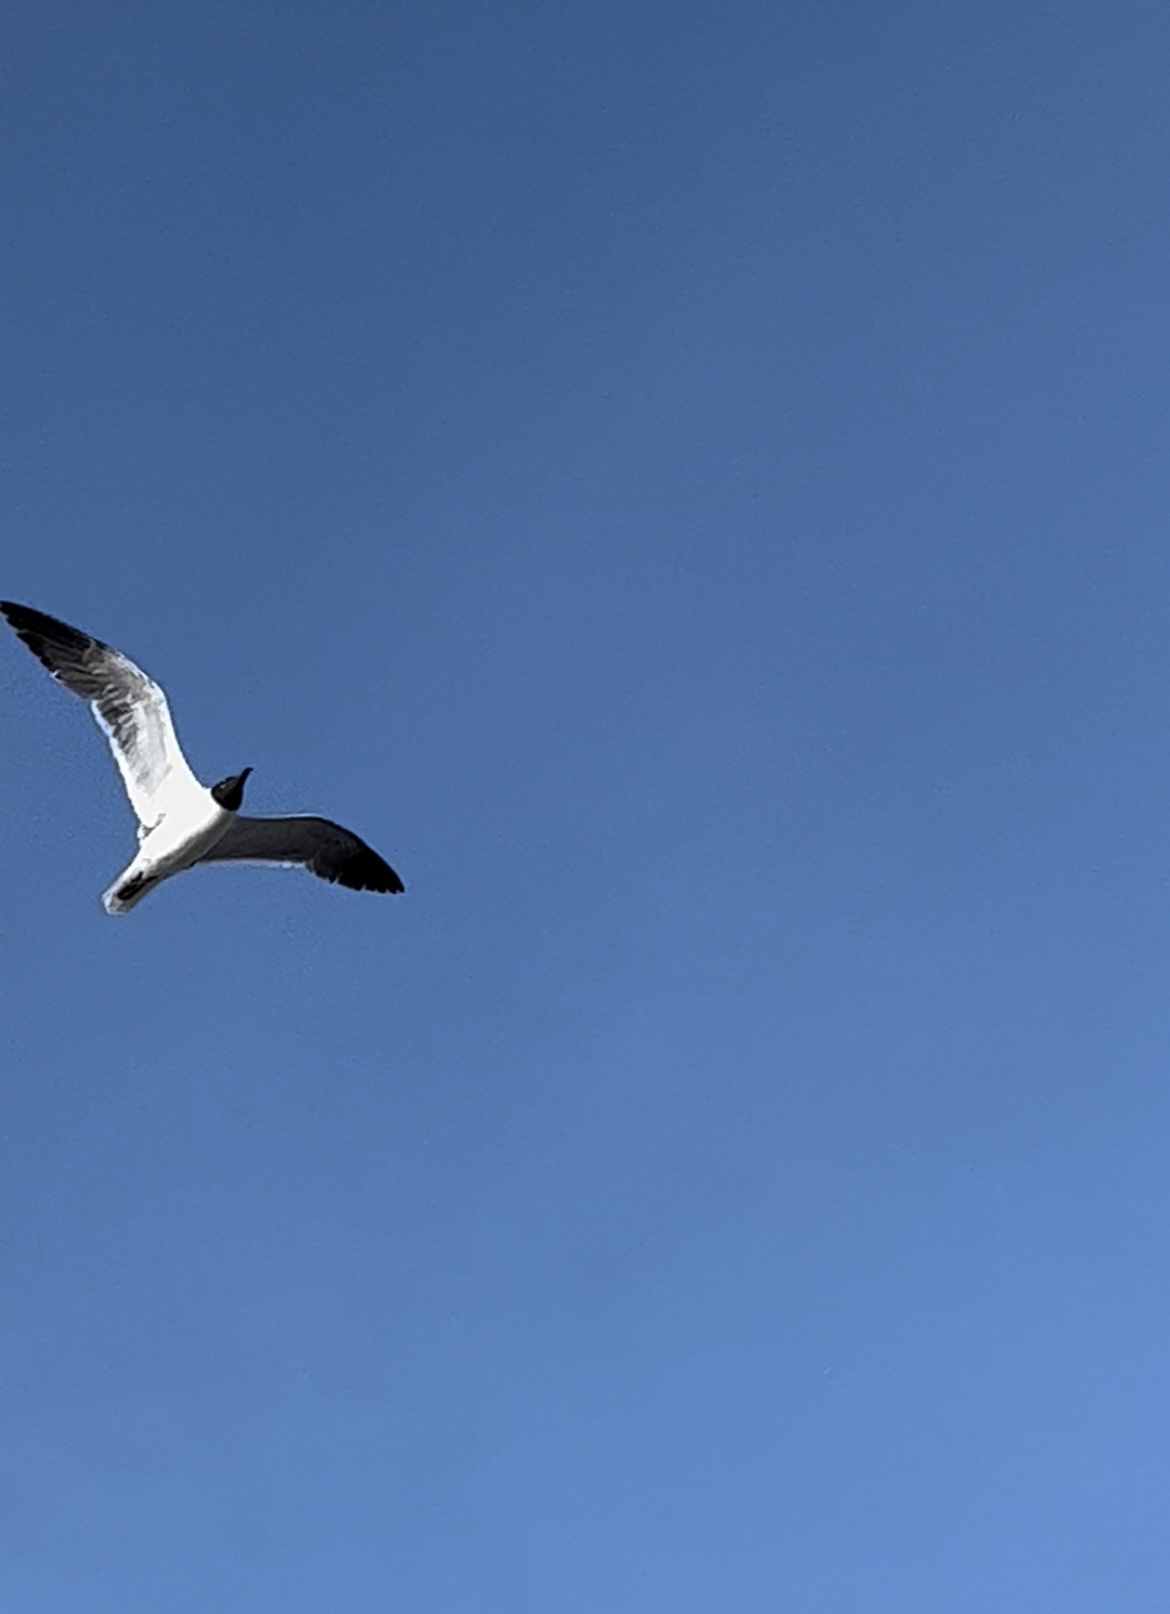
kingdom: Animalia
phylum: Chordata
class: Aves
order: Charadriiformes
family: Laridae
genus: Leucophaeus
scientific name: Leucophaeus atricilla
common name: Laughing gull
